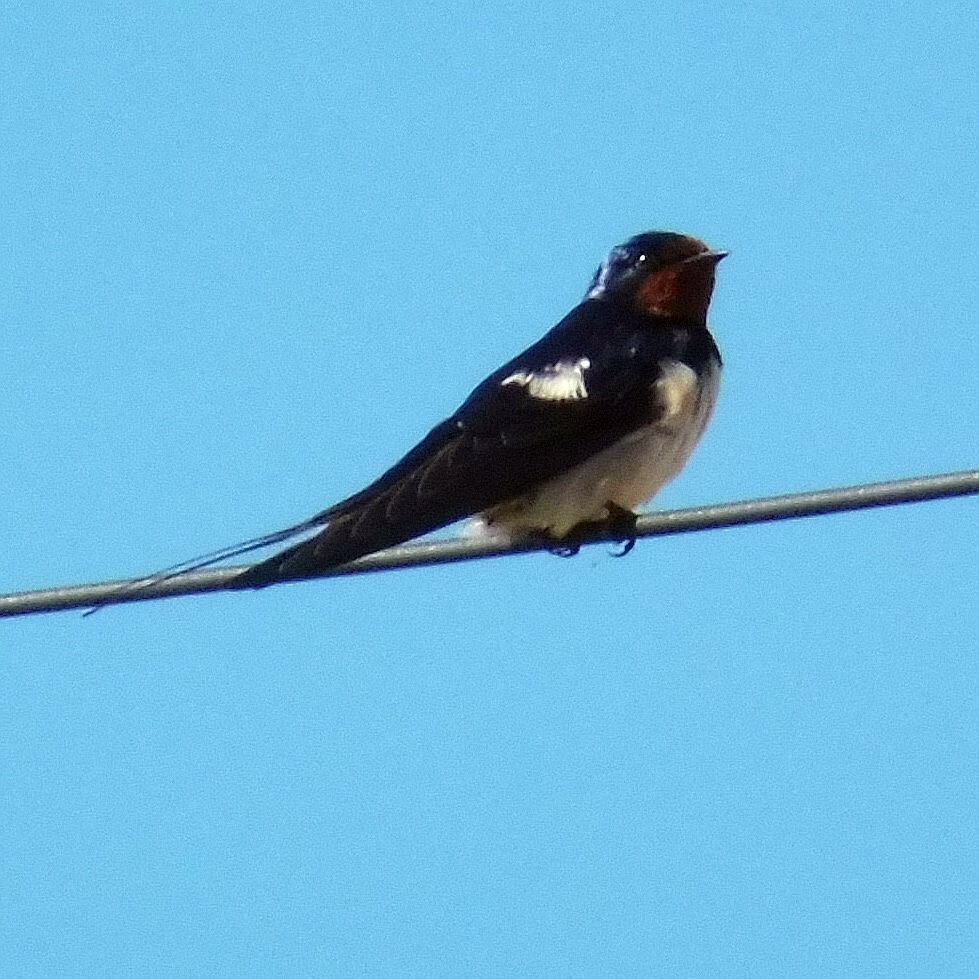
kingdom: Animalia
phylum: Chordata
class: Aves
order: Passeriformes
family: Hirundinidae
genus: Hirundo
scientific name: Hirundo rustica
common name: Barn swallow
